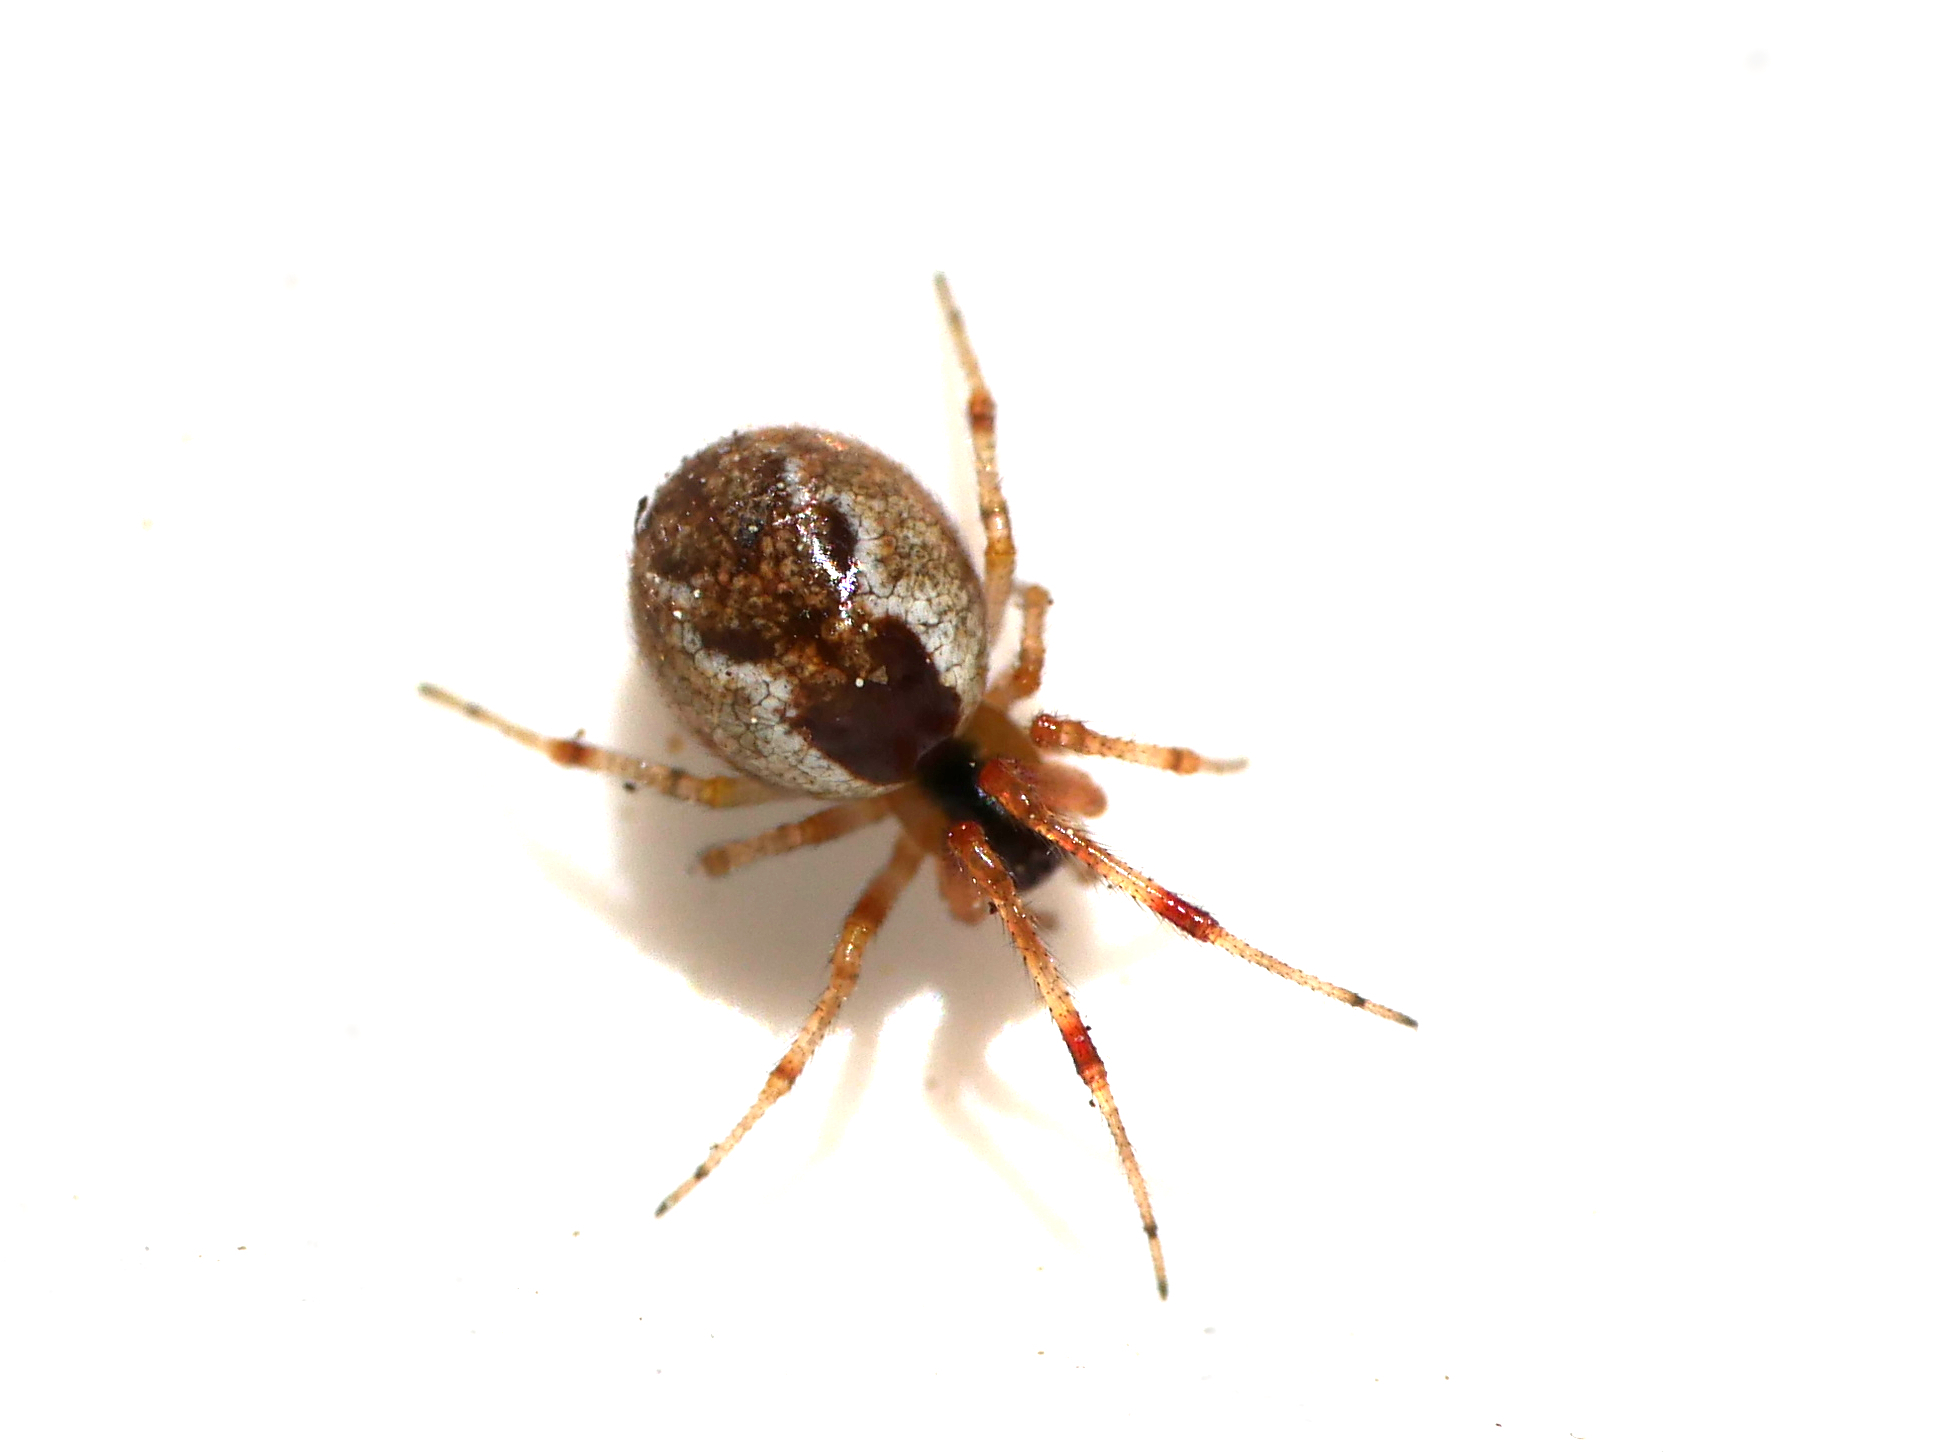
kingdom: Animalia
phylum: Arthropoda
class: Arachnida
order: Araneae
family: Theridiidae
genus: Anelosimus
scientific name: Anelosimus vittatus
